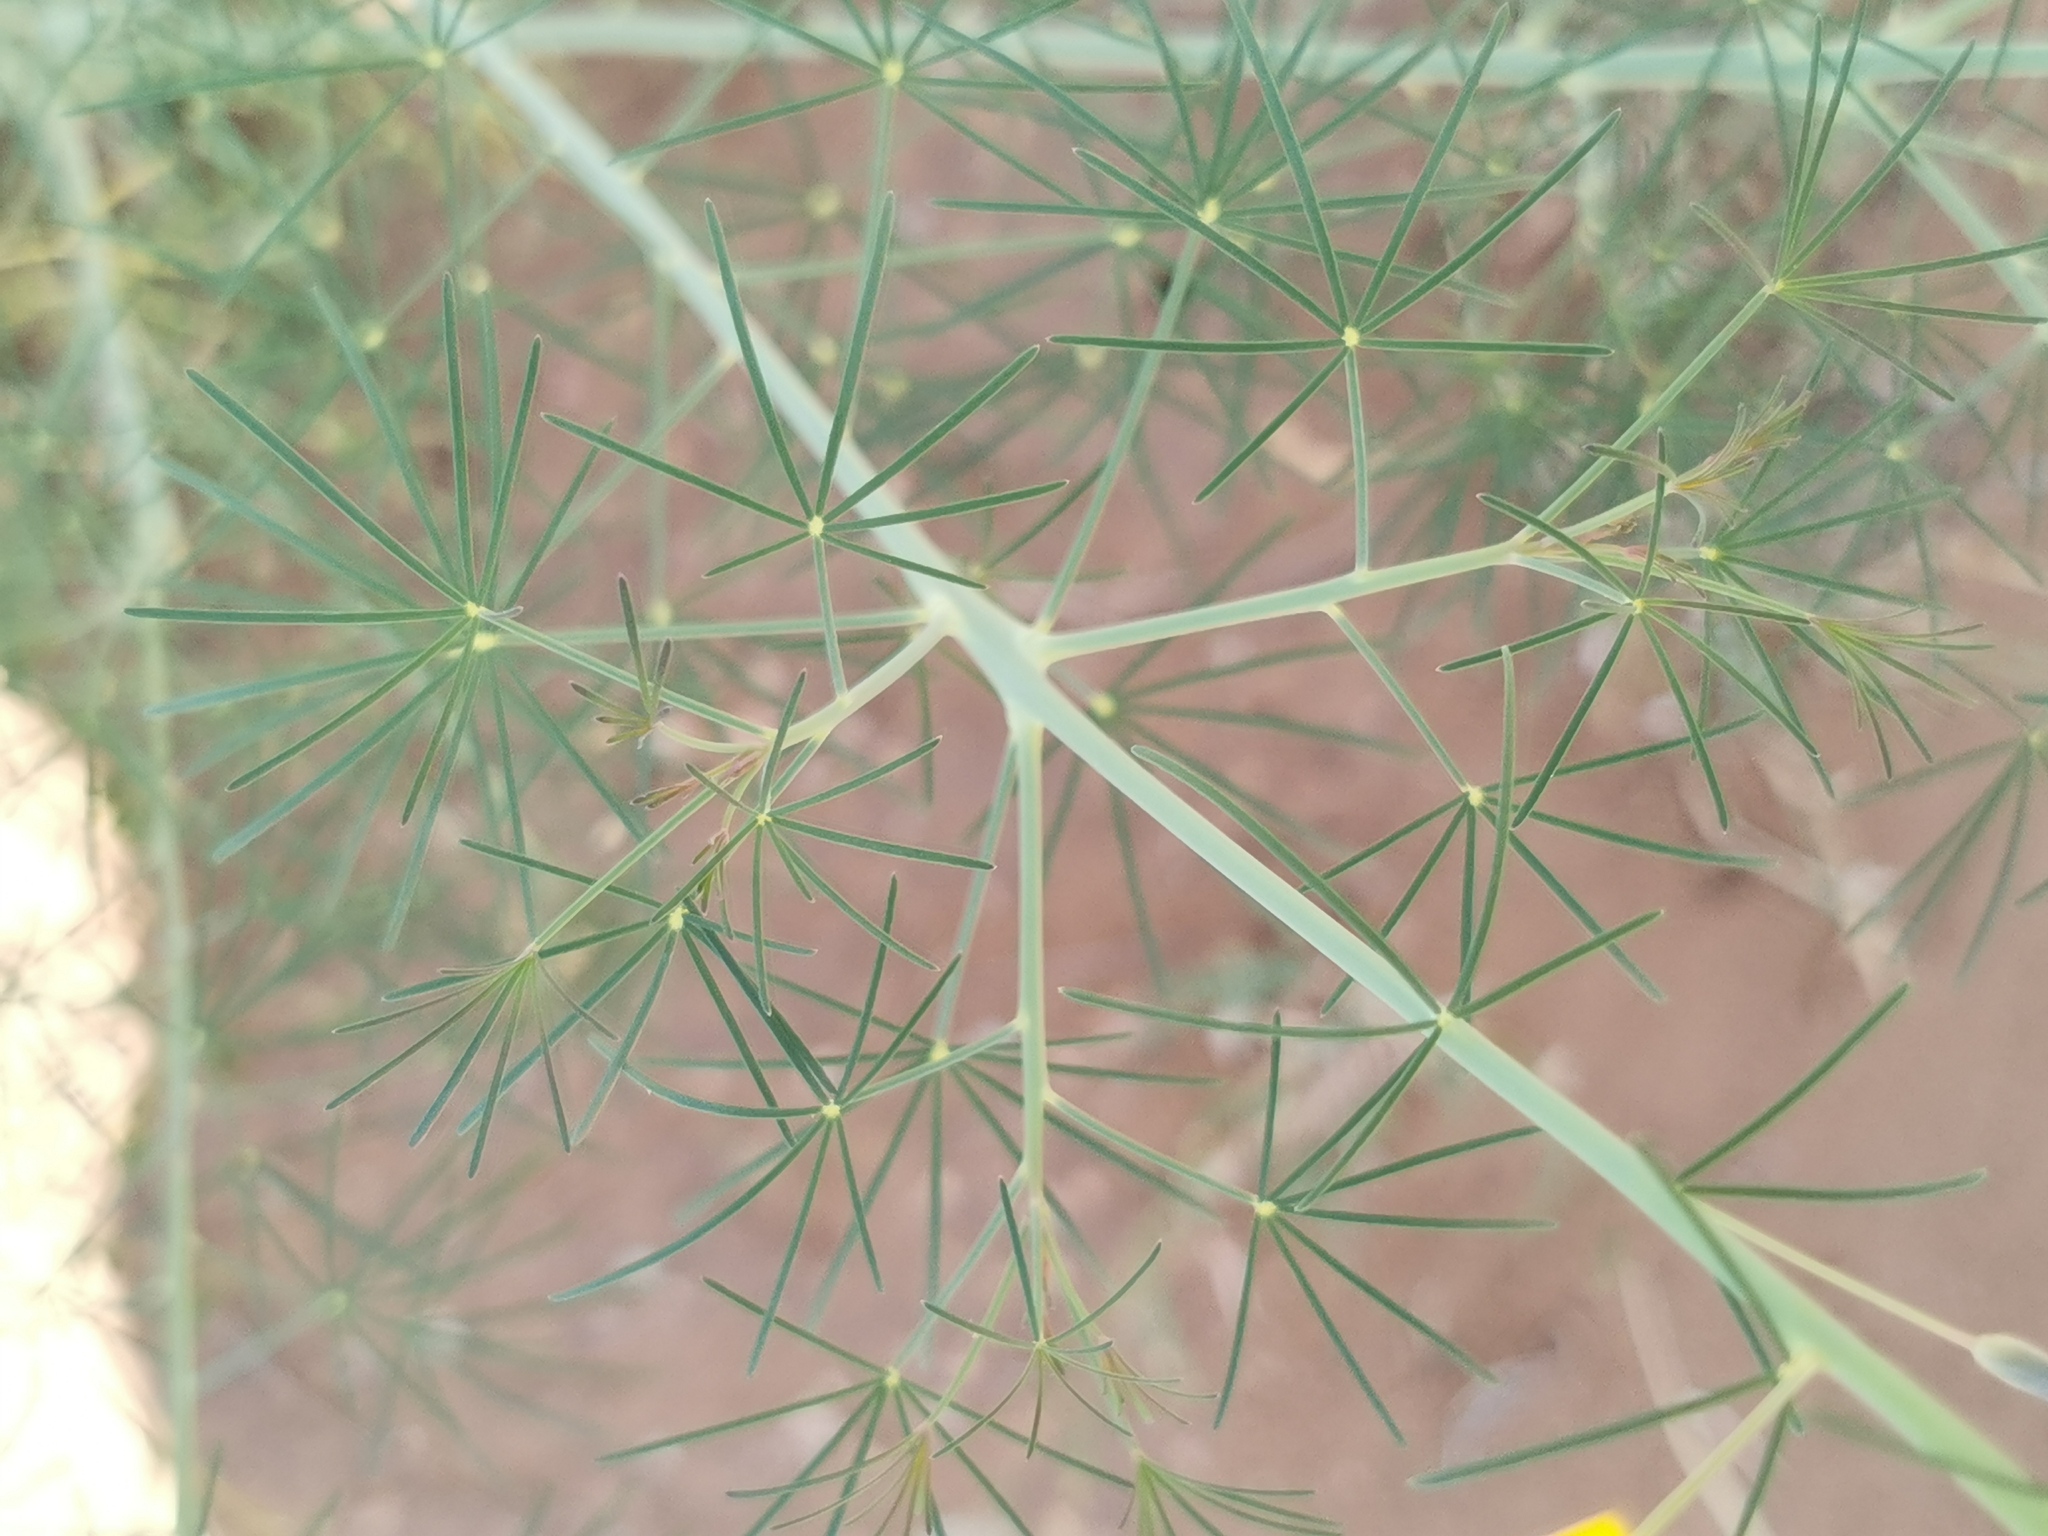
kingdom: Plantae
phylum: Tracheophyta
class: Magnoliopsida
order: Brassicales
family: Cleomaceae
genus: Coalisina
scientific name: Coalisina
